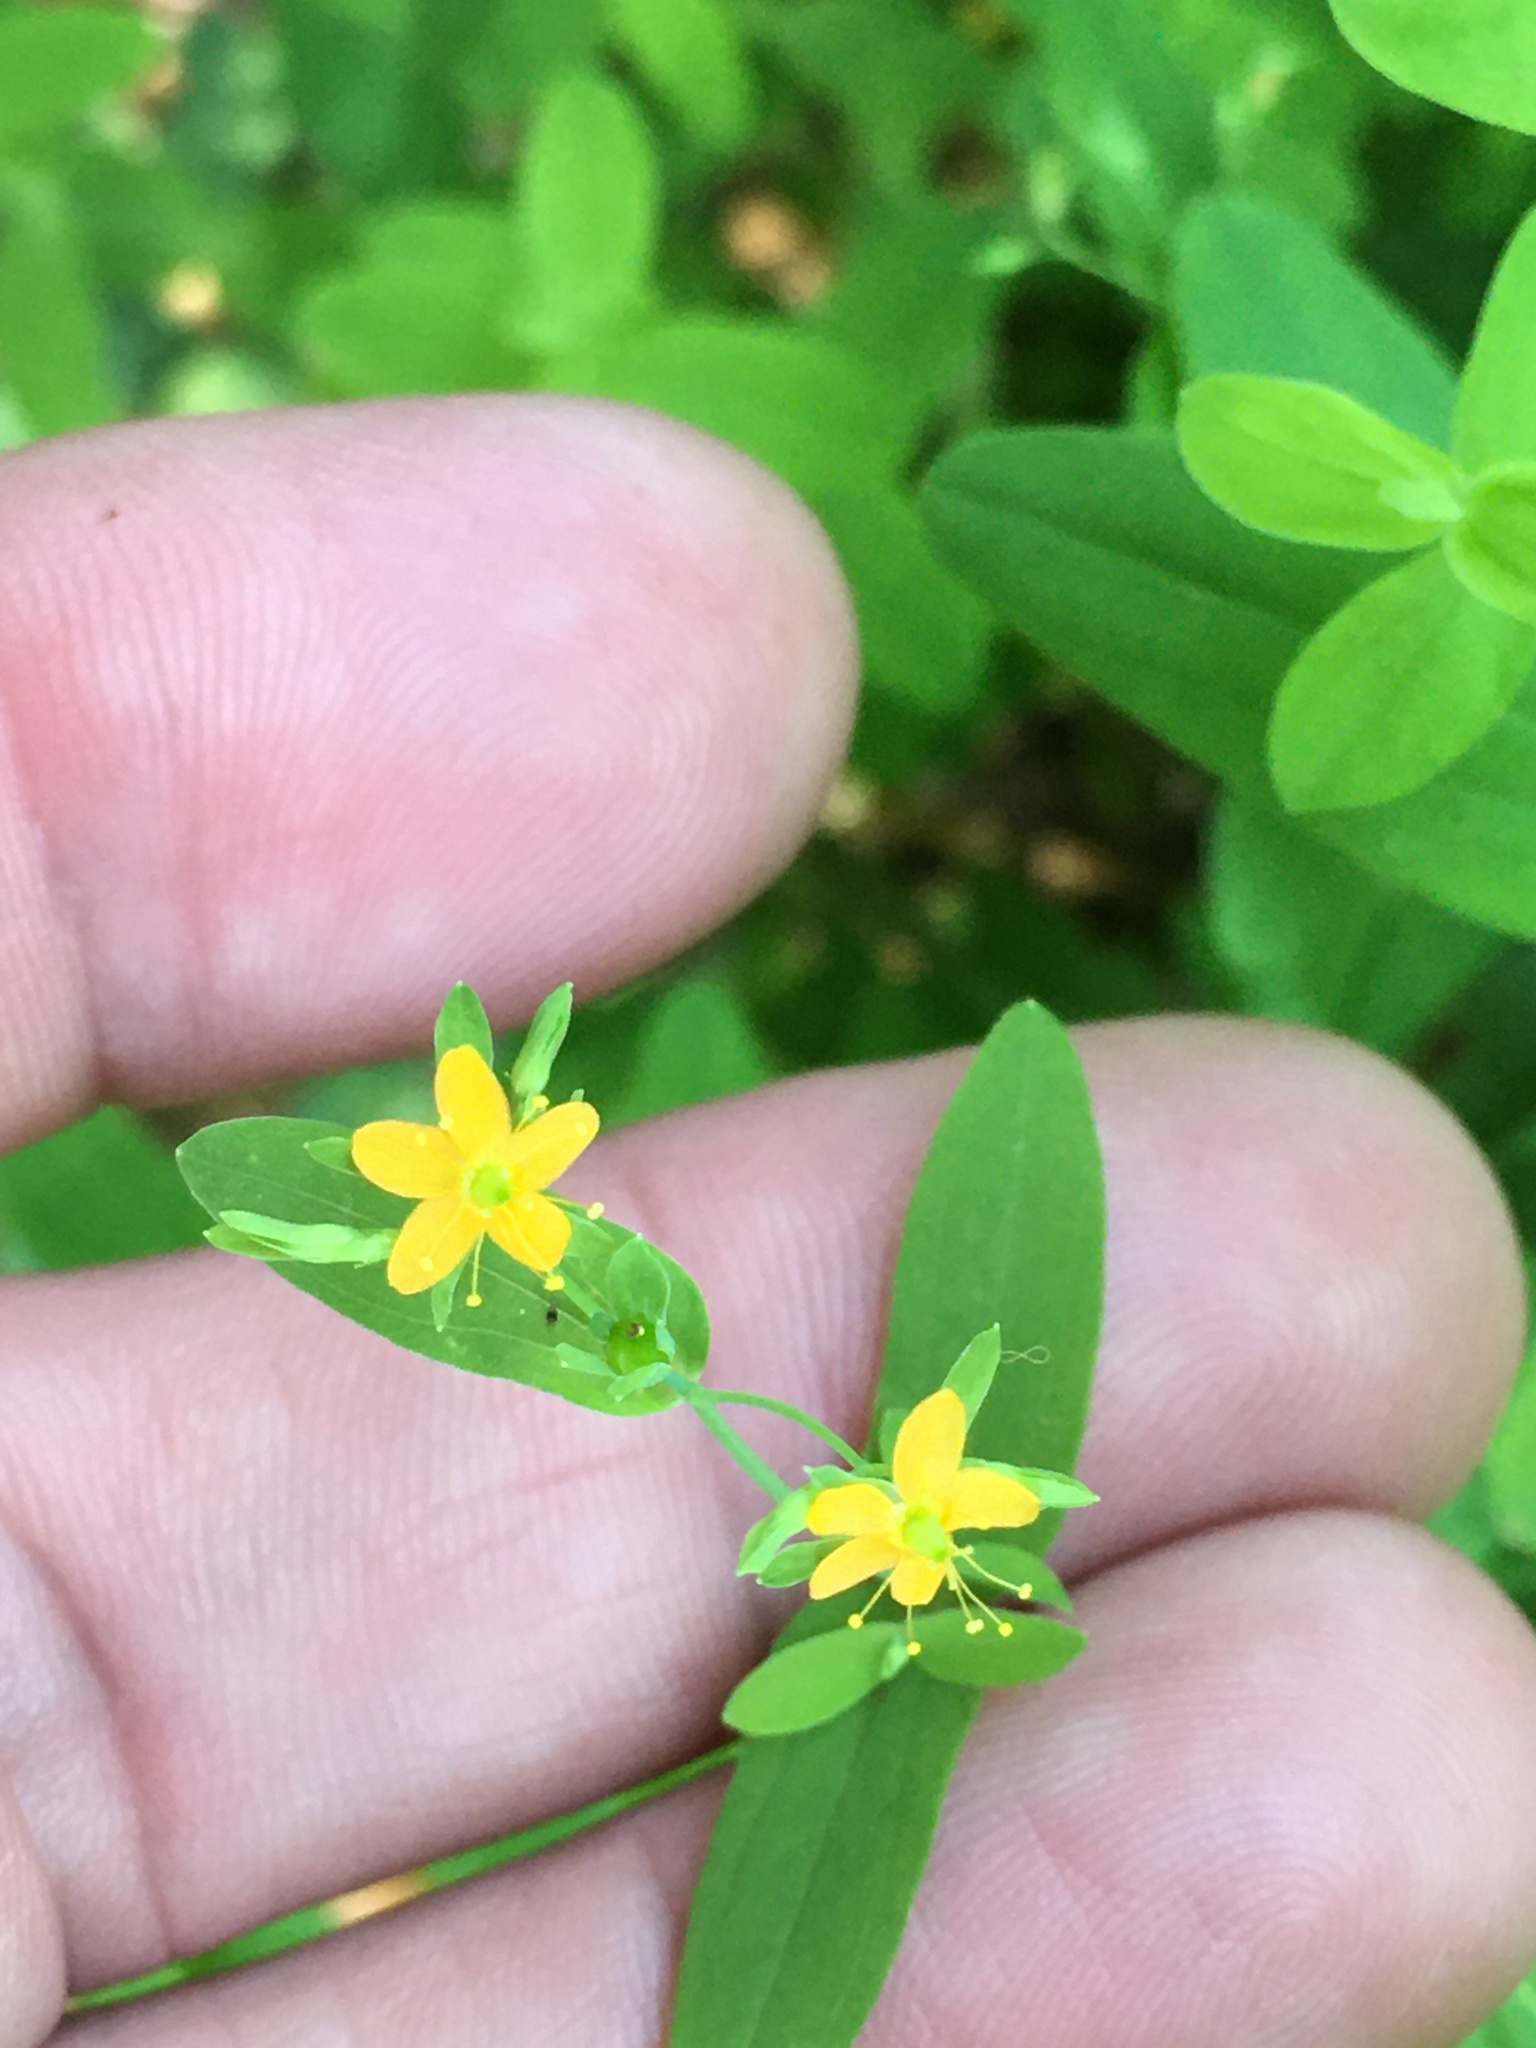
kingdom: Plantae
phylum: Tracheophyta
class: Magnoliopsida
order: Malpighiales
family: Hypericaceae
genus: Hypericum
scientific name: Hypericum mutilum
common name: Dwarf st. john's-wort
